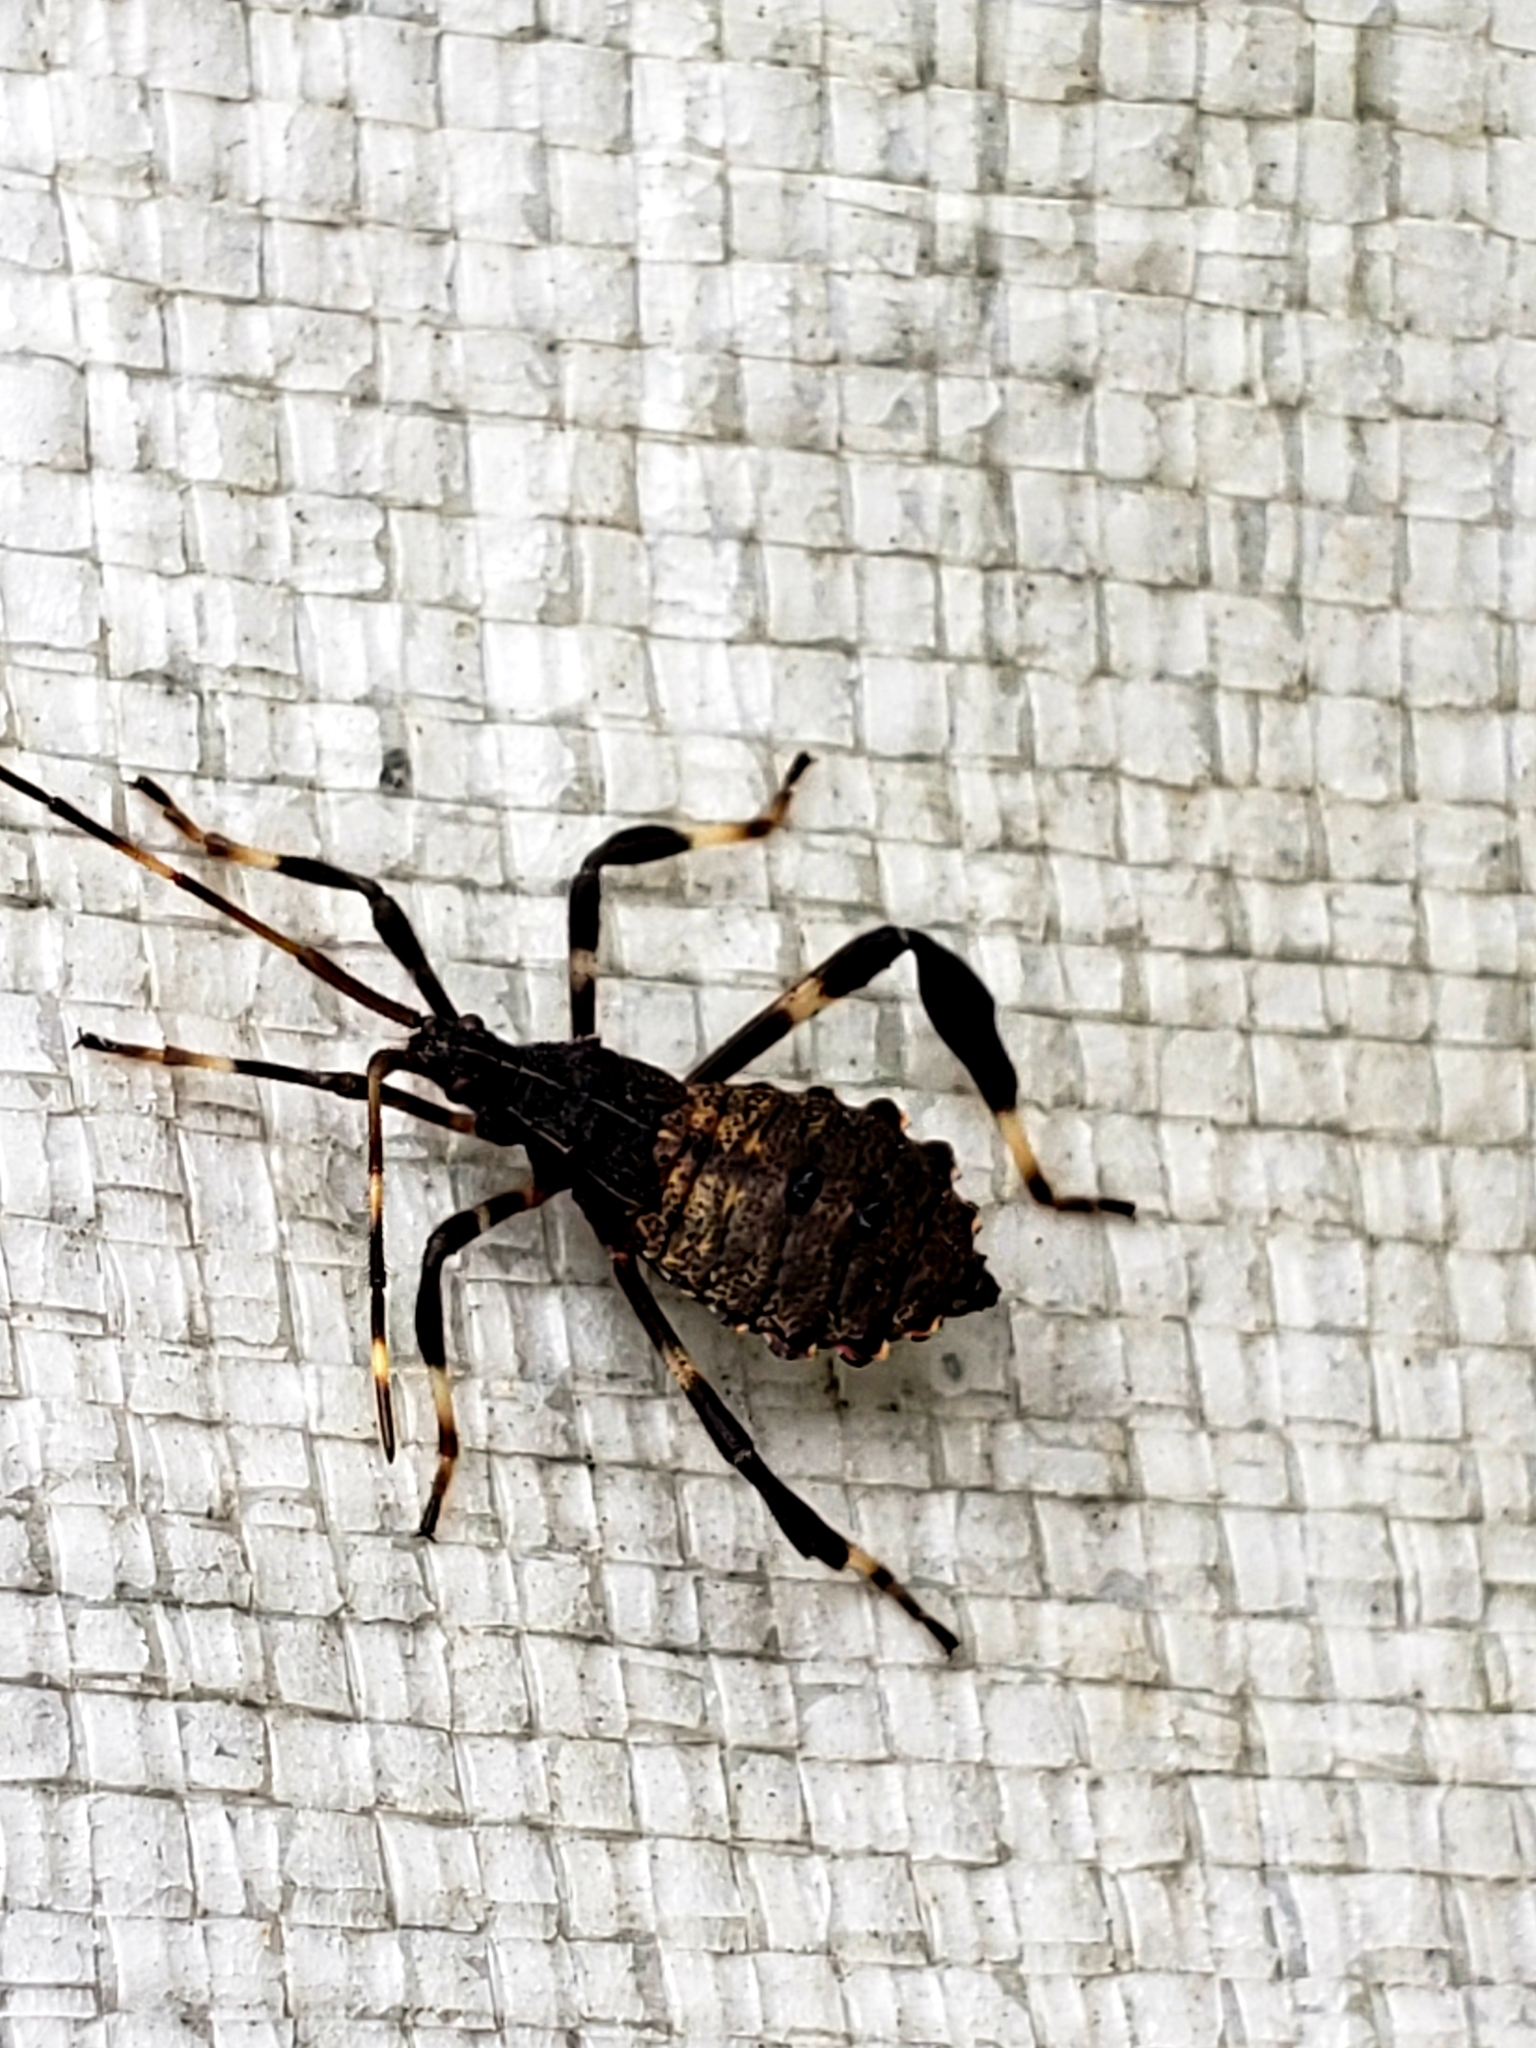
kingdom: Animalia
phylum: Arthropoda
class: Insecta
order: Hemiptera
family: Coreidae
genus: Acanthocephala
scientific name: Acanthocephala terminalis
